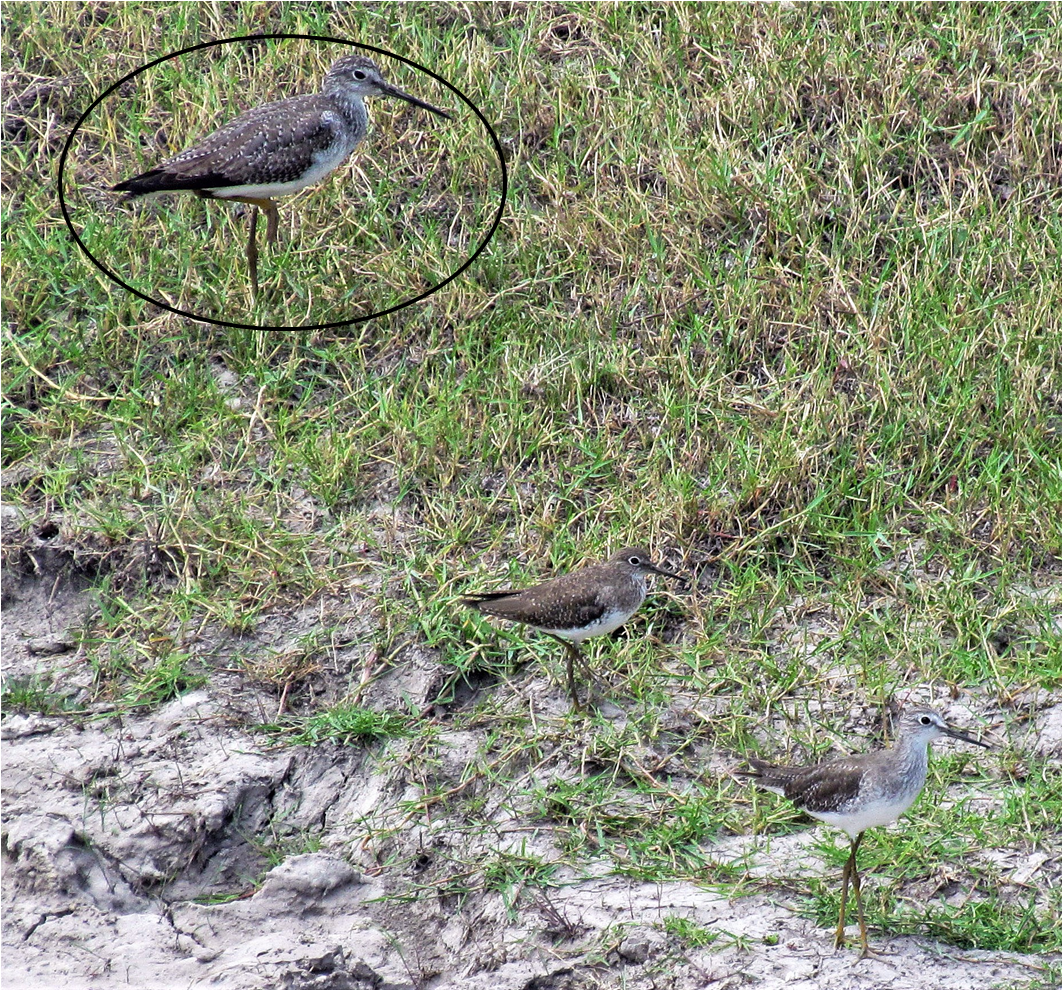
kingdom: Animalia
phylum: Chordata
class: Aves
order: Charadriiformes
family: Scolopacidae
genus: Tringa
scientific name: Tringa melanoleuca
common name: Greater yellowlegs
